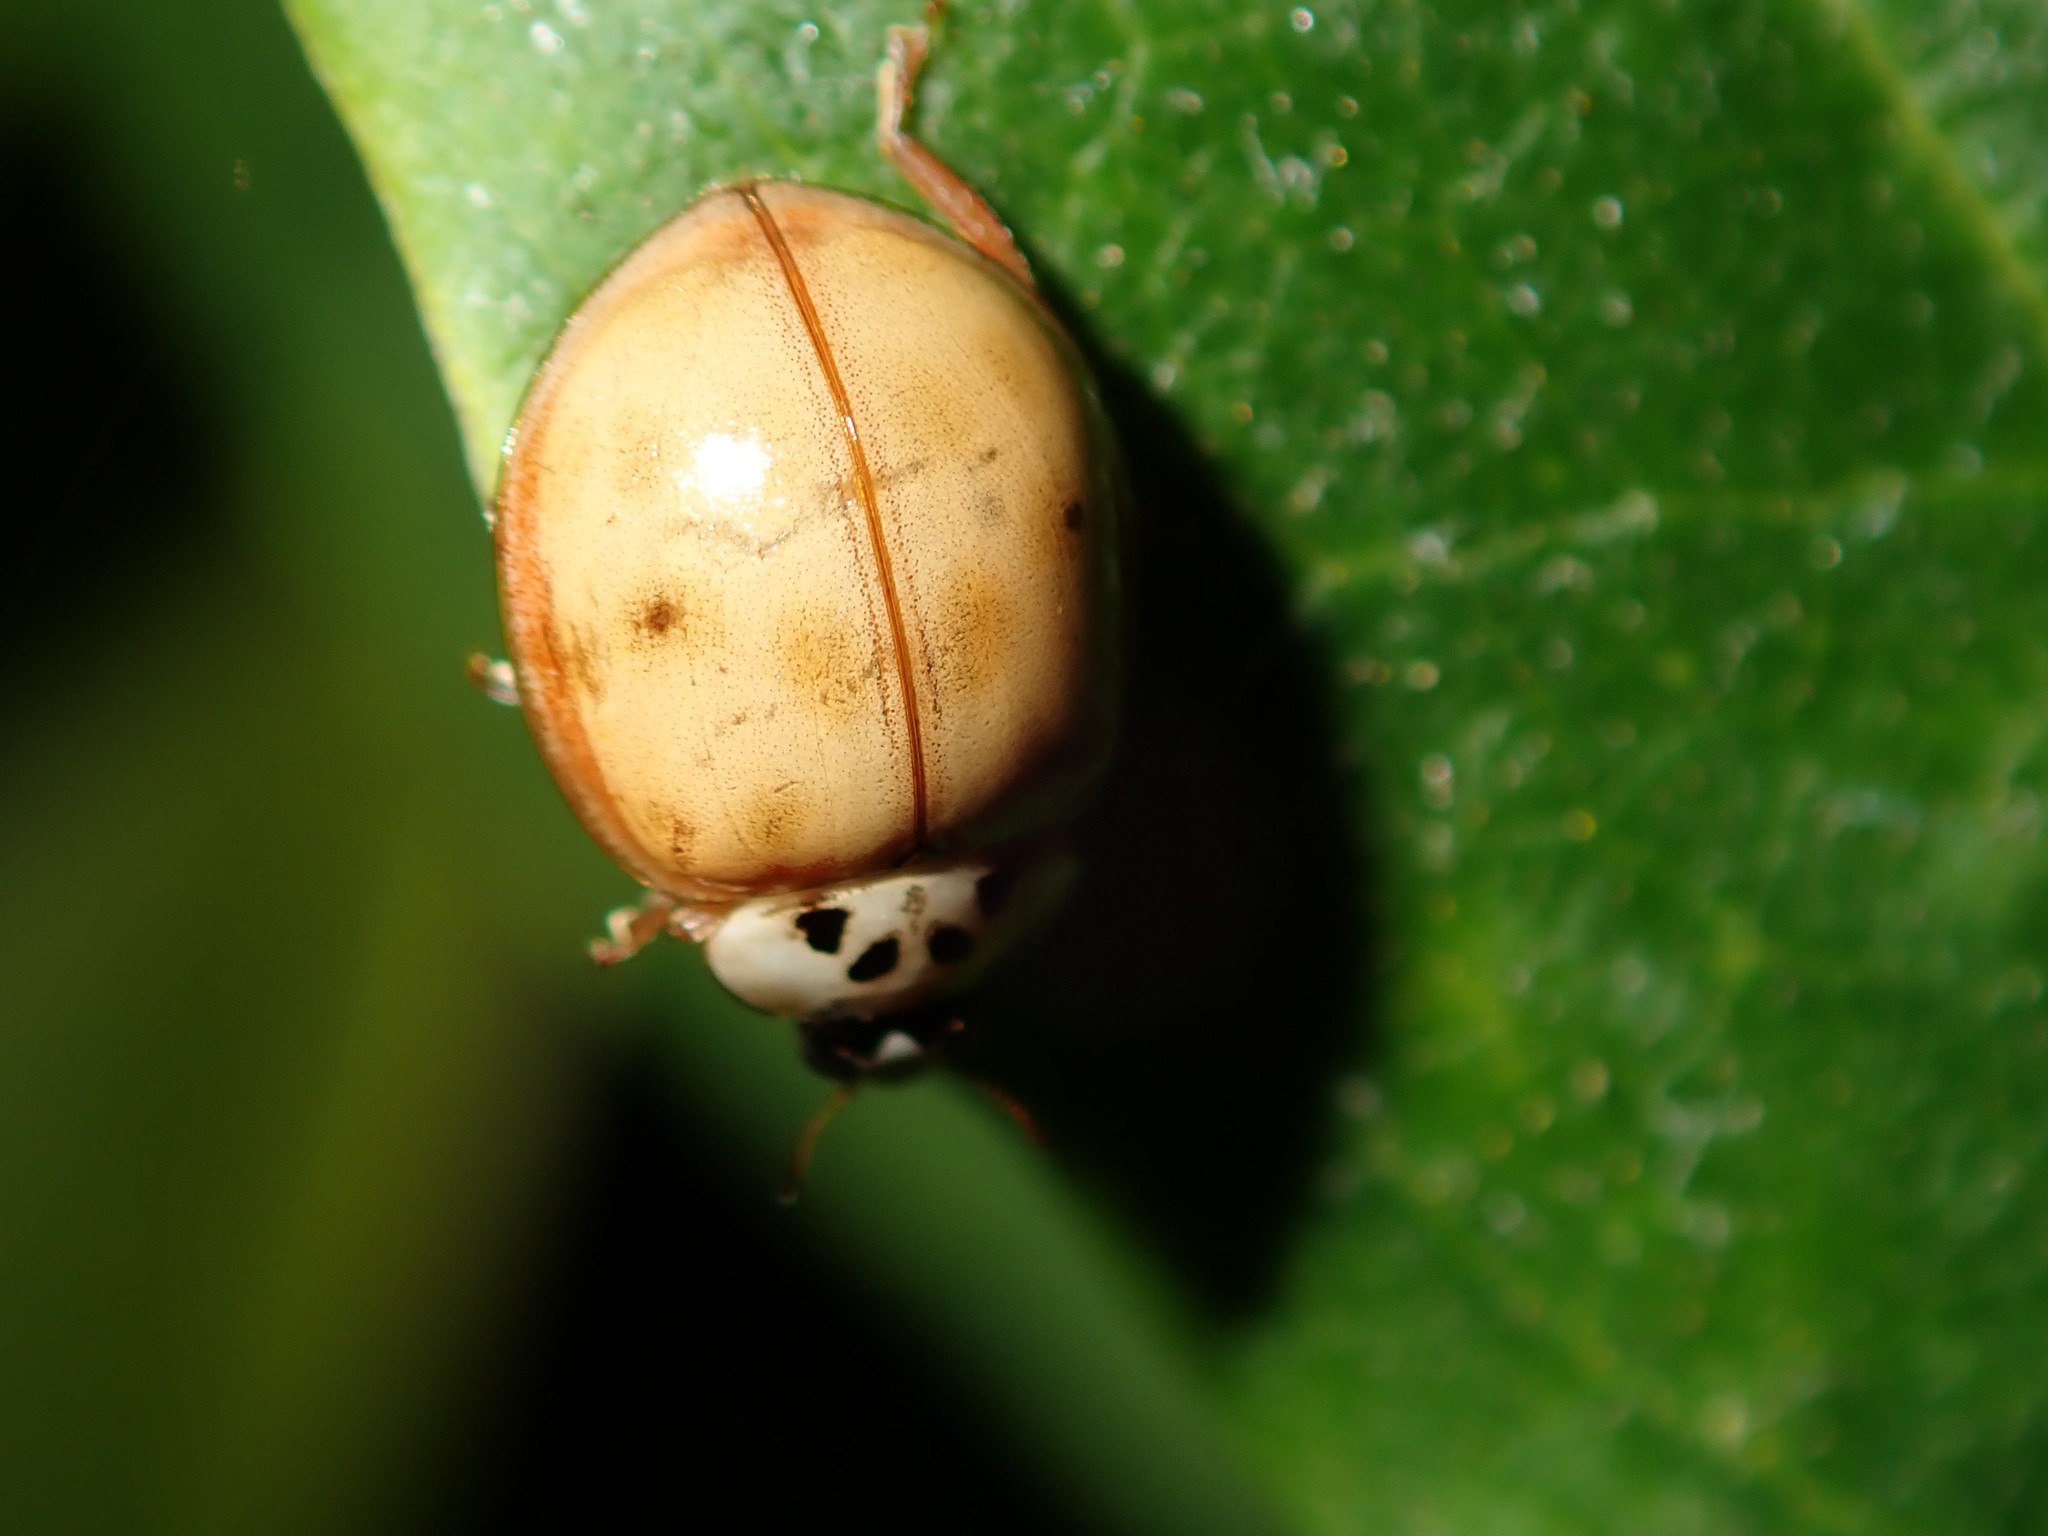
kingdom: Animalia
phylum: Arthropoda
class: Insecta
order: Coleoptera
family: Coccinellidae
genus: Harmonia
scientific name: Harmonia axyridis
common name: Harlequin ladybird
